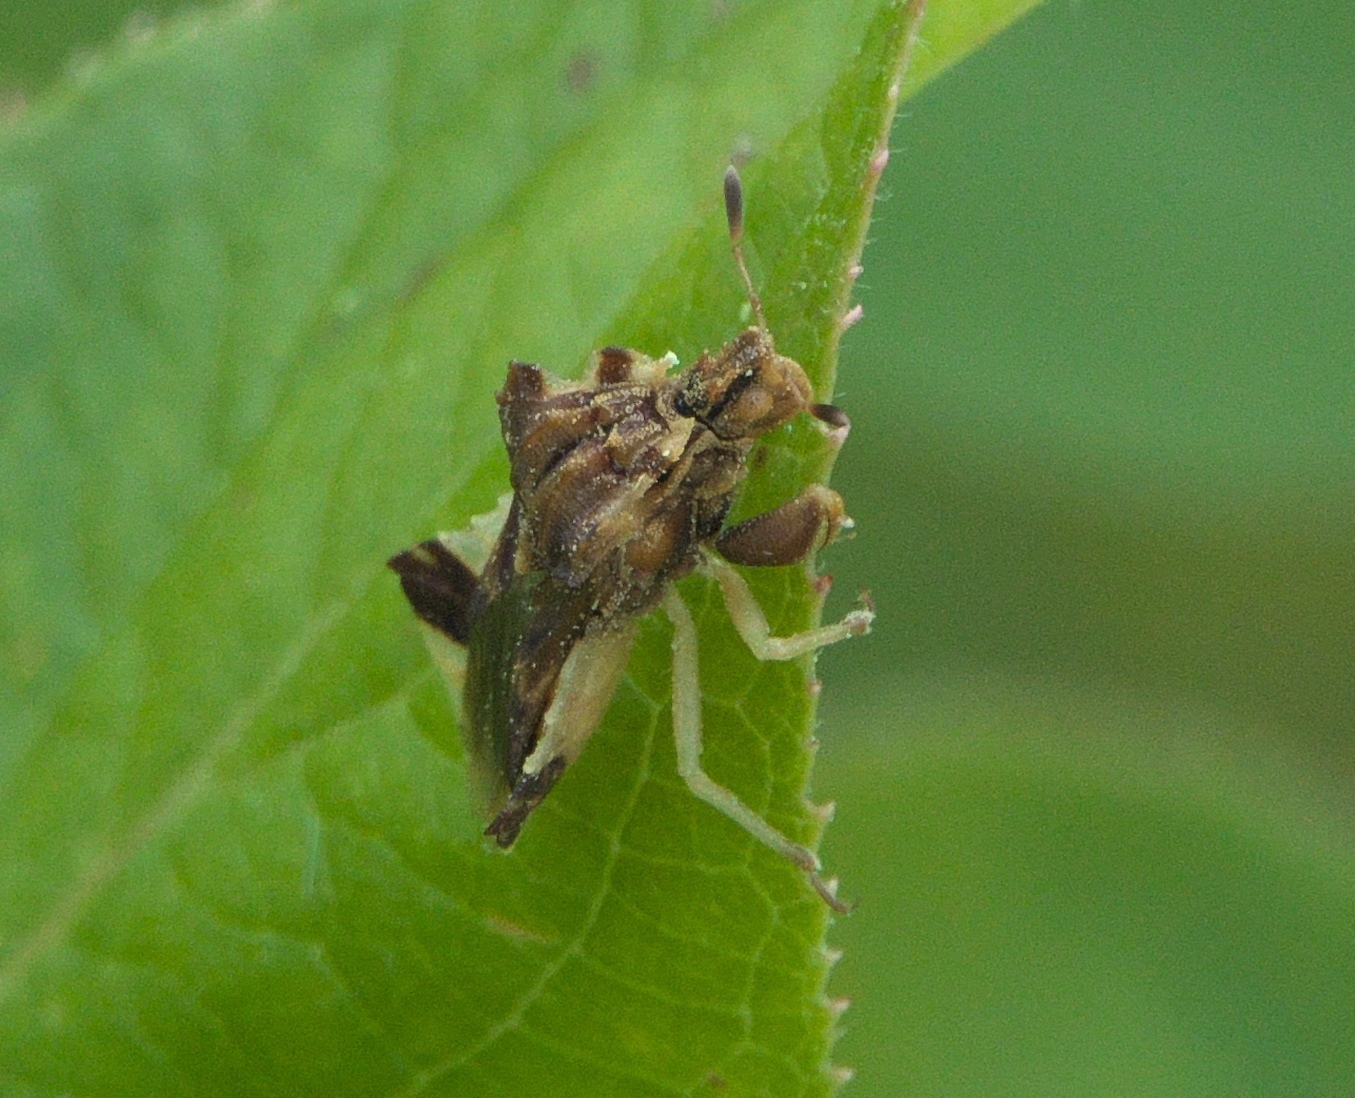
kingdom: Animalia
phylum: Arthropoda
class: Insecta
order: Hemiptera
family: Reduviidae
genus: Phymata
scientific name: Phymata fasciata
